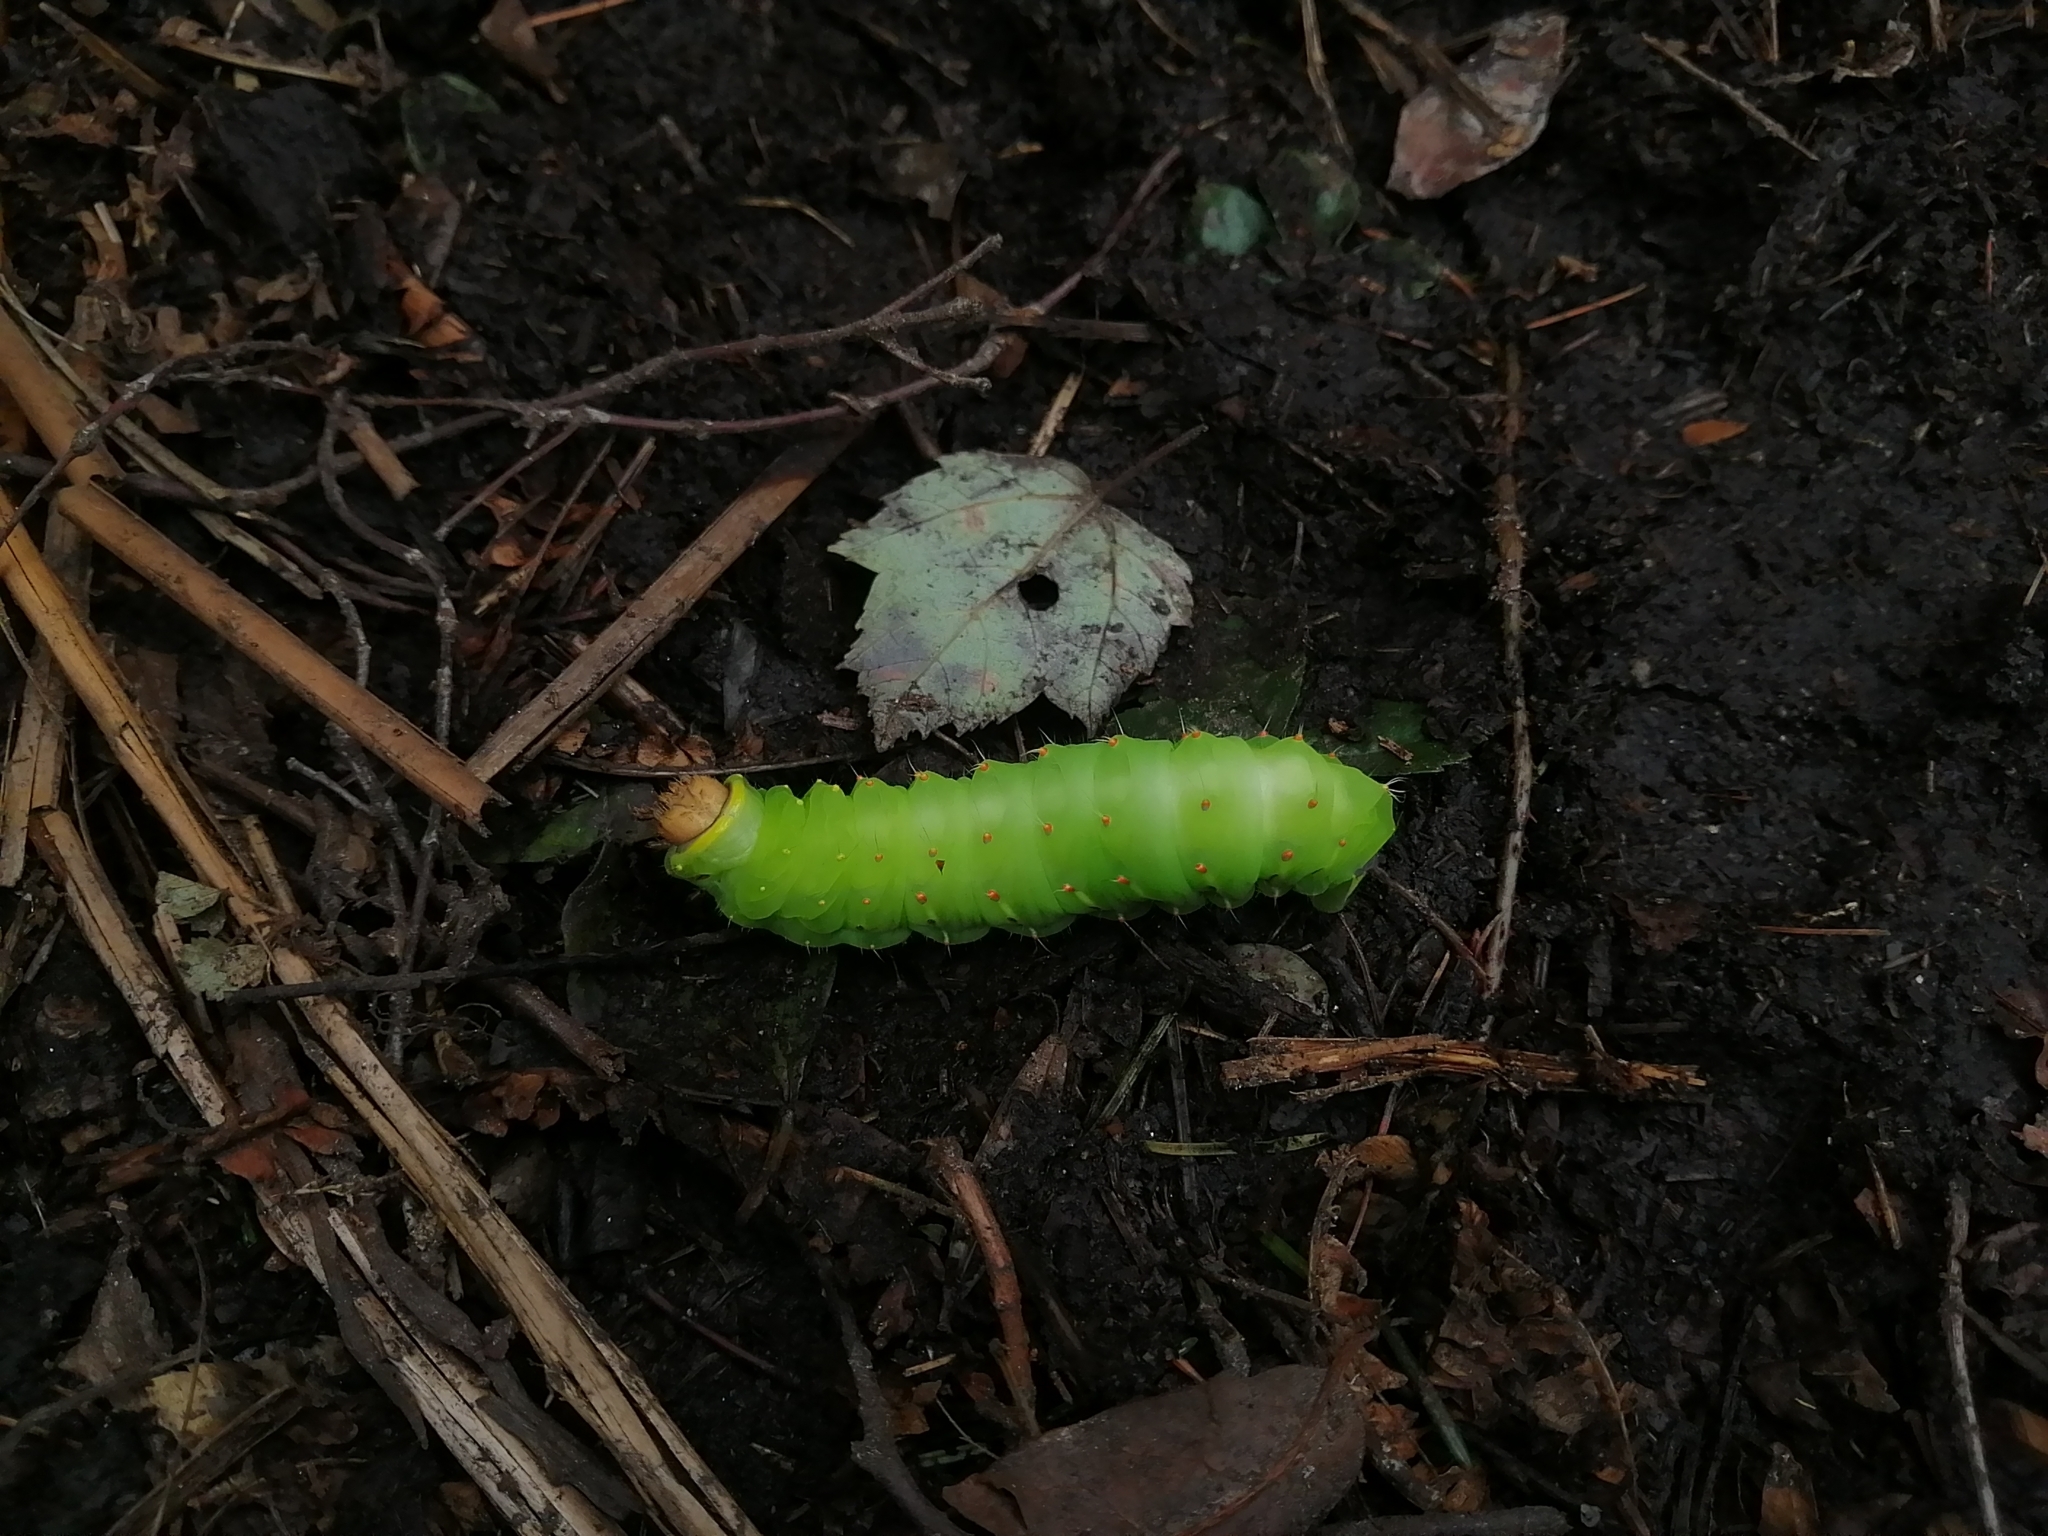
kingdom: Animalia
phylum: Arthropoda
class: Insecta
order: Lepidoptera
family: Saturniidae
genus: Antheraea
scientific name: Antheraea polyphemus
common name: Polyphemus moth
